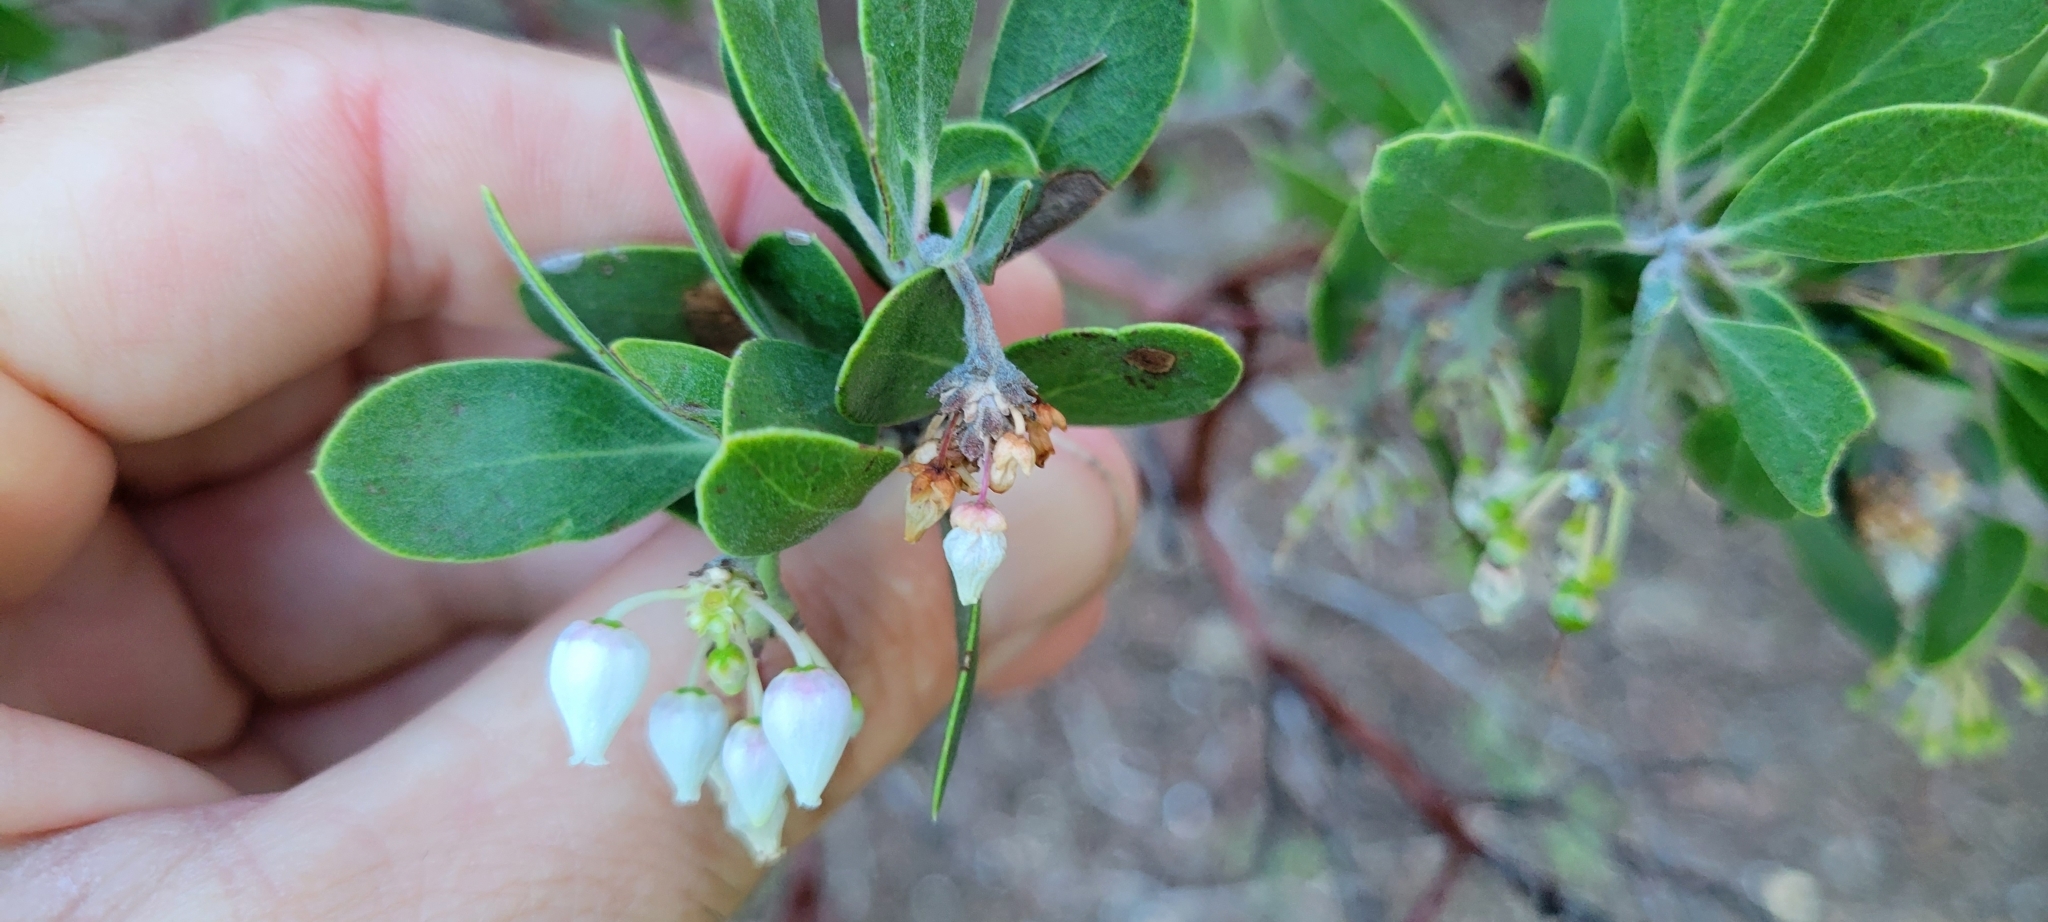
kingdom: Plantae
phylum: Tracheophyta
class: Magnoliopsida
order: Ericales
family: Ericaceae
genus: Arctostaphylos
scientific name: Arctostaphylos pungens
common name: Mexican manzanita
